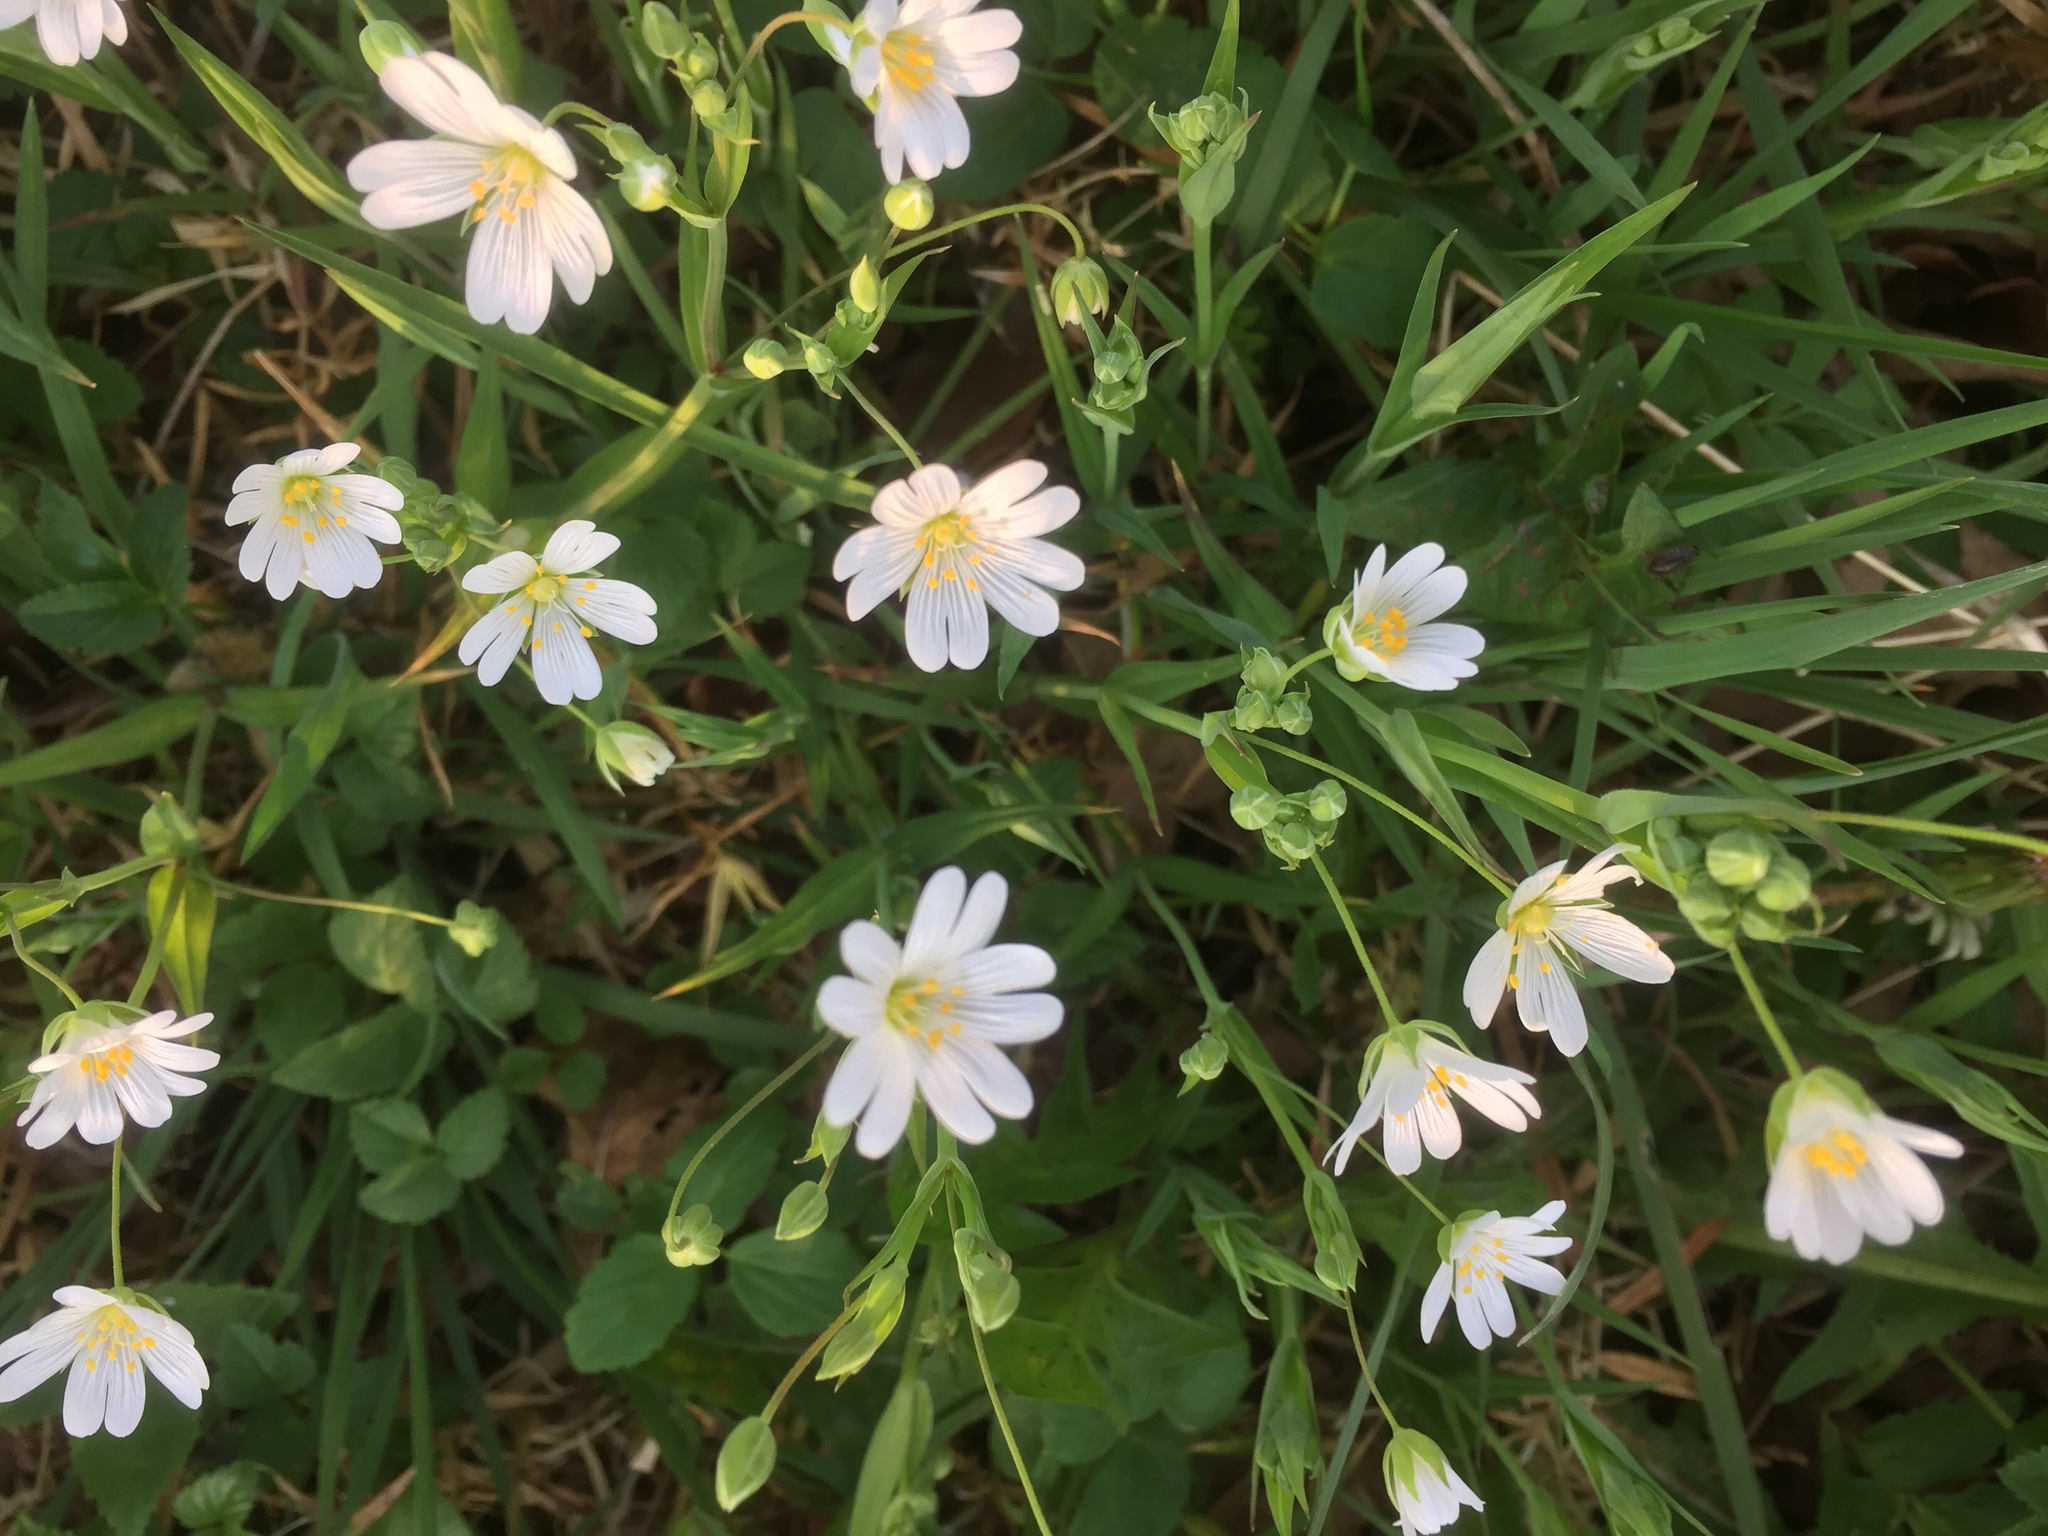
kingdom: Plantae
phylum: Tracheophyta
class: Magnoliopsida
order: Caryophyllales
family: Caryophyllaceae
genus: Rabelera
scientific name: Rabelera holostea
